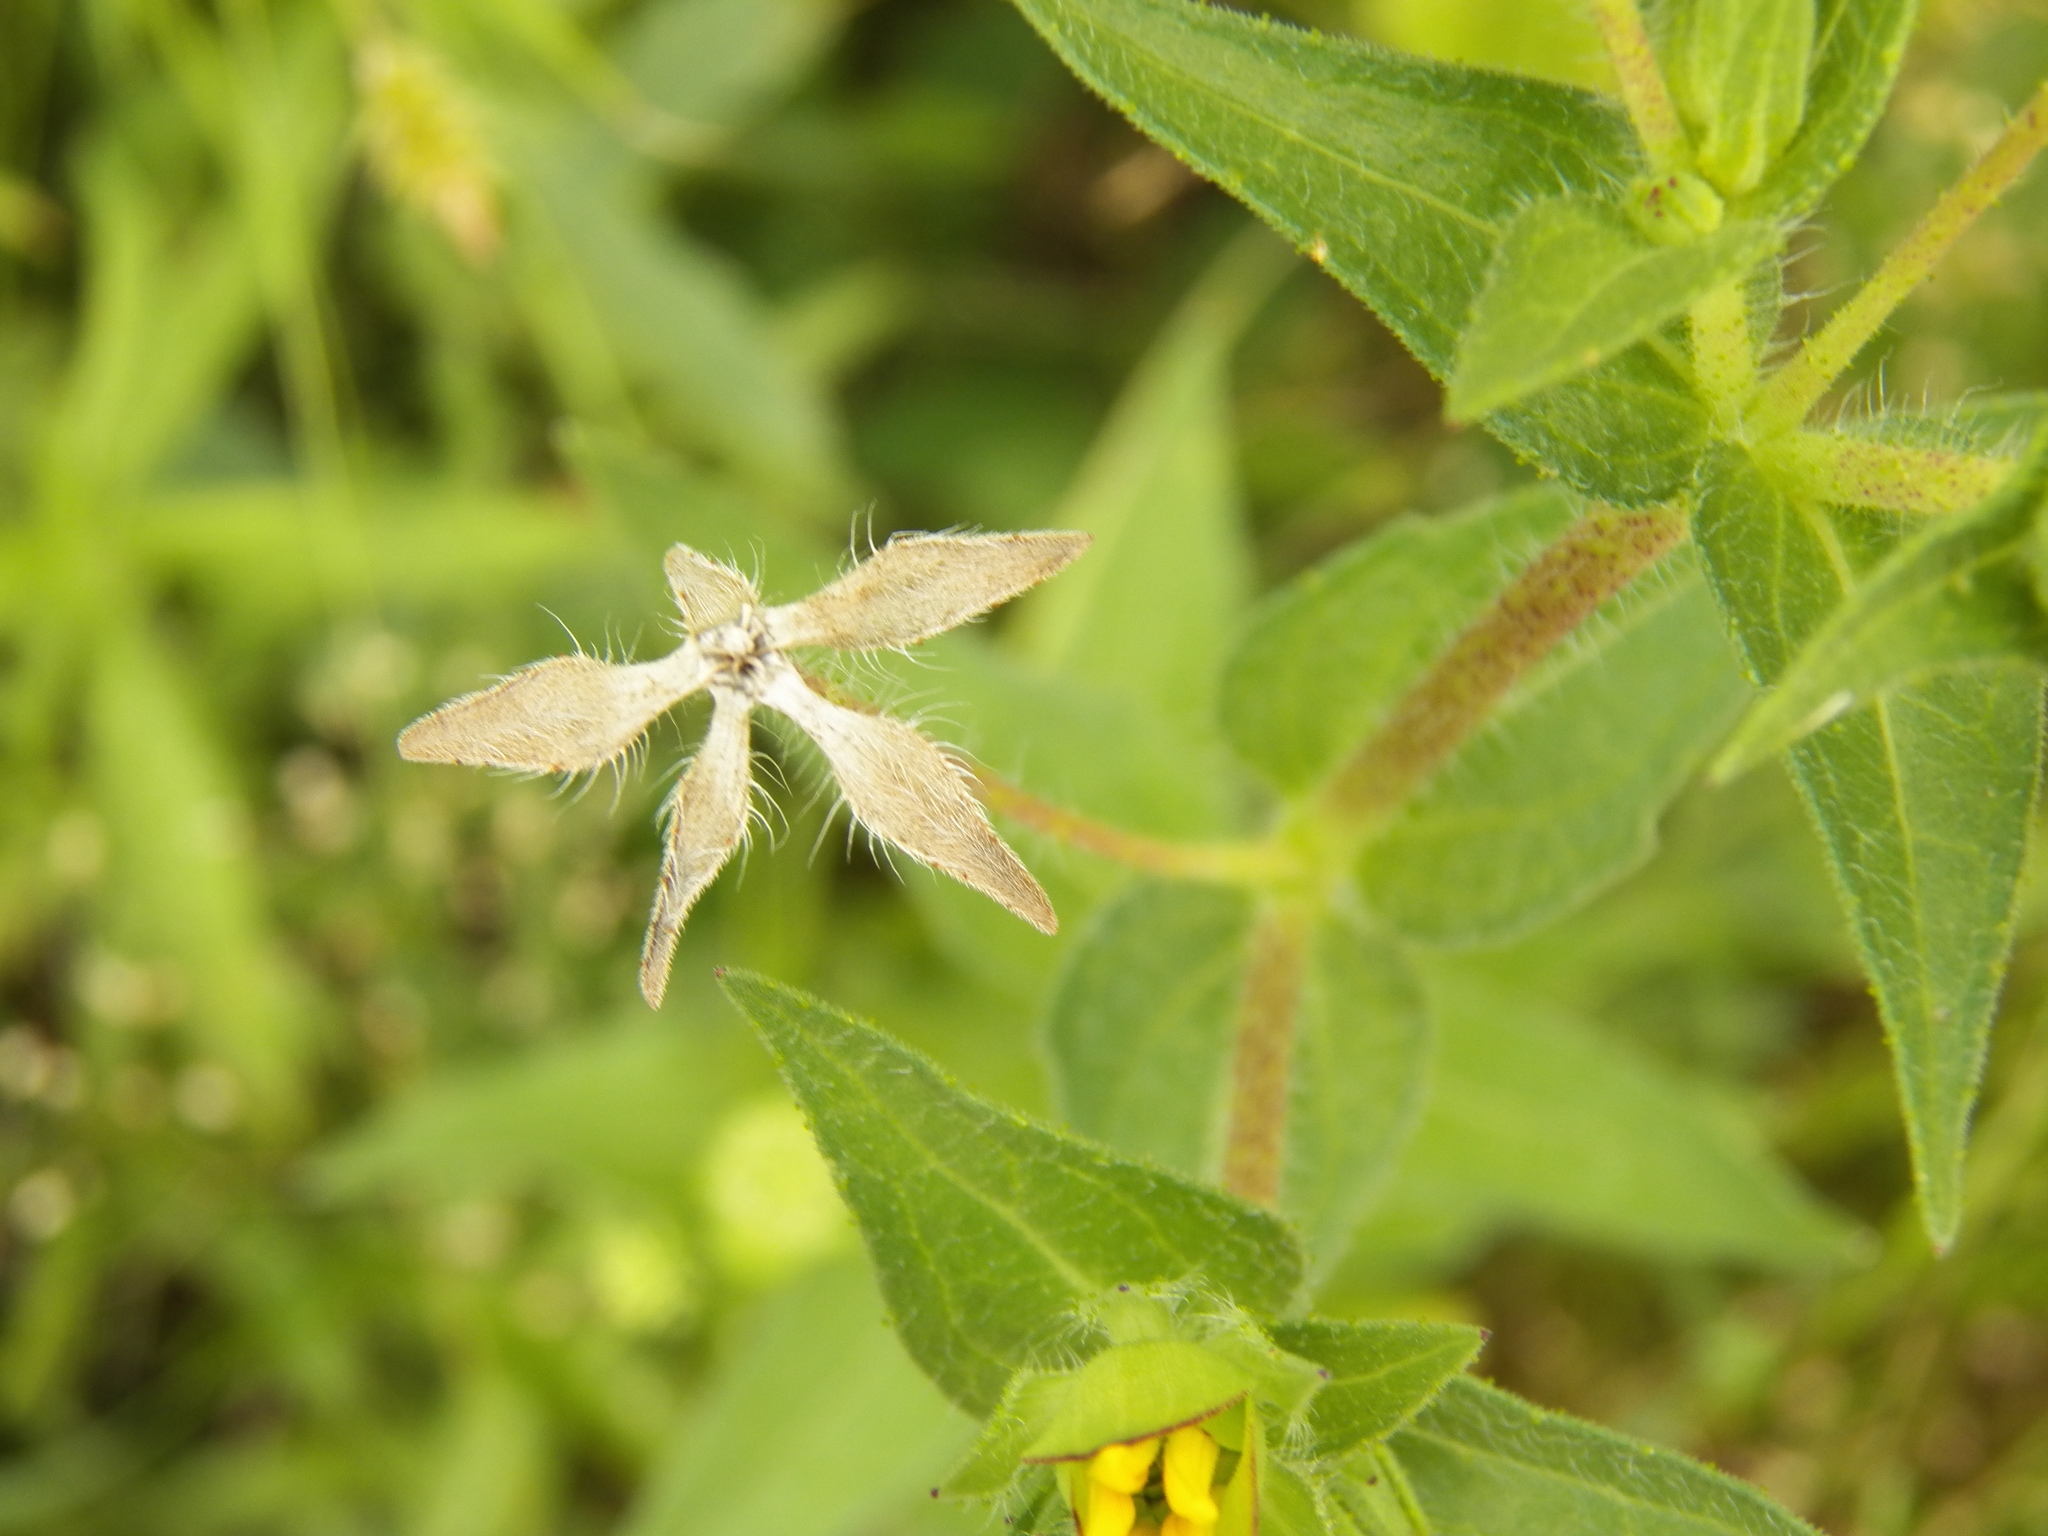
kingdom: Plantae
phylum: Tracheophyta
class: Magnoliopsida
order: Asterales
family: Asteraceae
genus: Lindheimera
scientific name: Lindheimera texana
